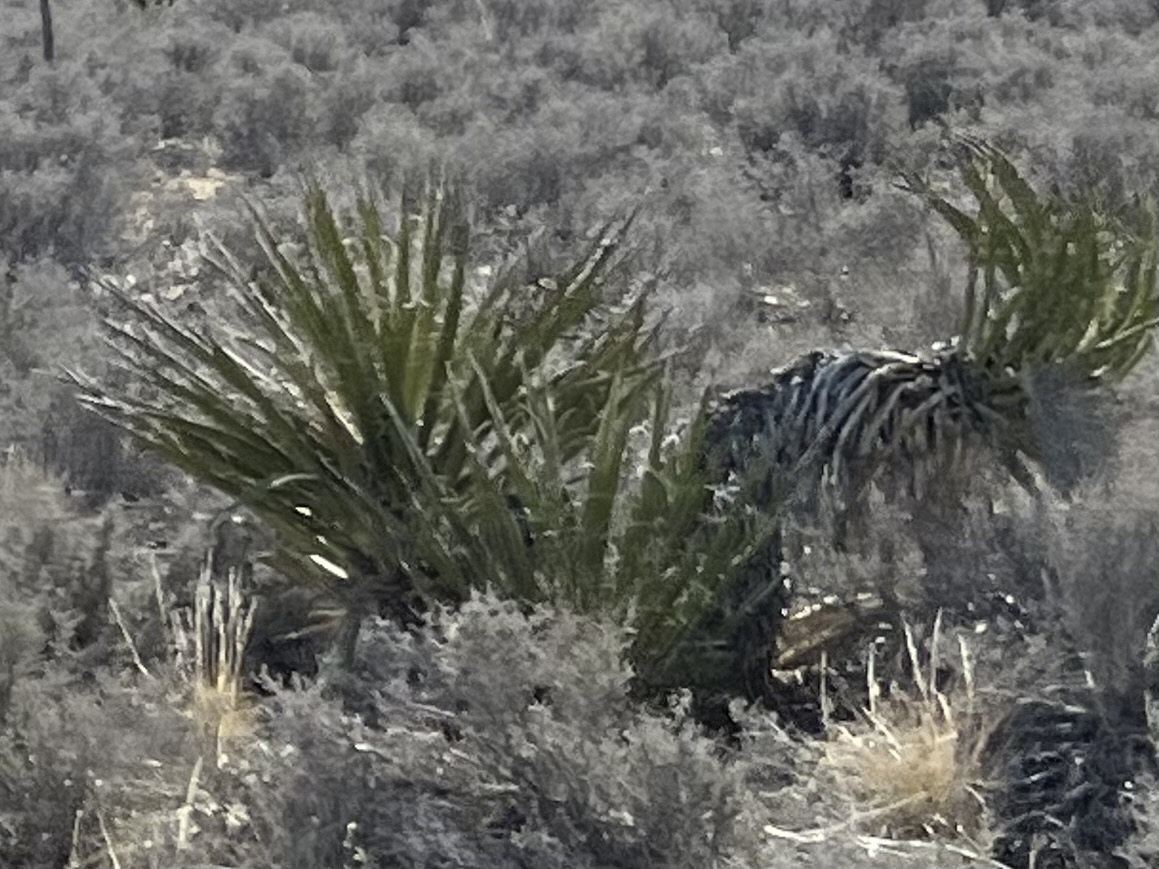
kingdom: Plantae
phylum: Tracheophyta
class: Liliopsida
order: Asparagales
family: Asparagaceae
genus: Yucca
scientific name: Yucca schidigera
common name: Mojave yucca
